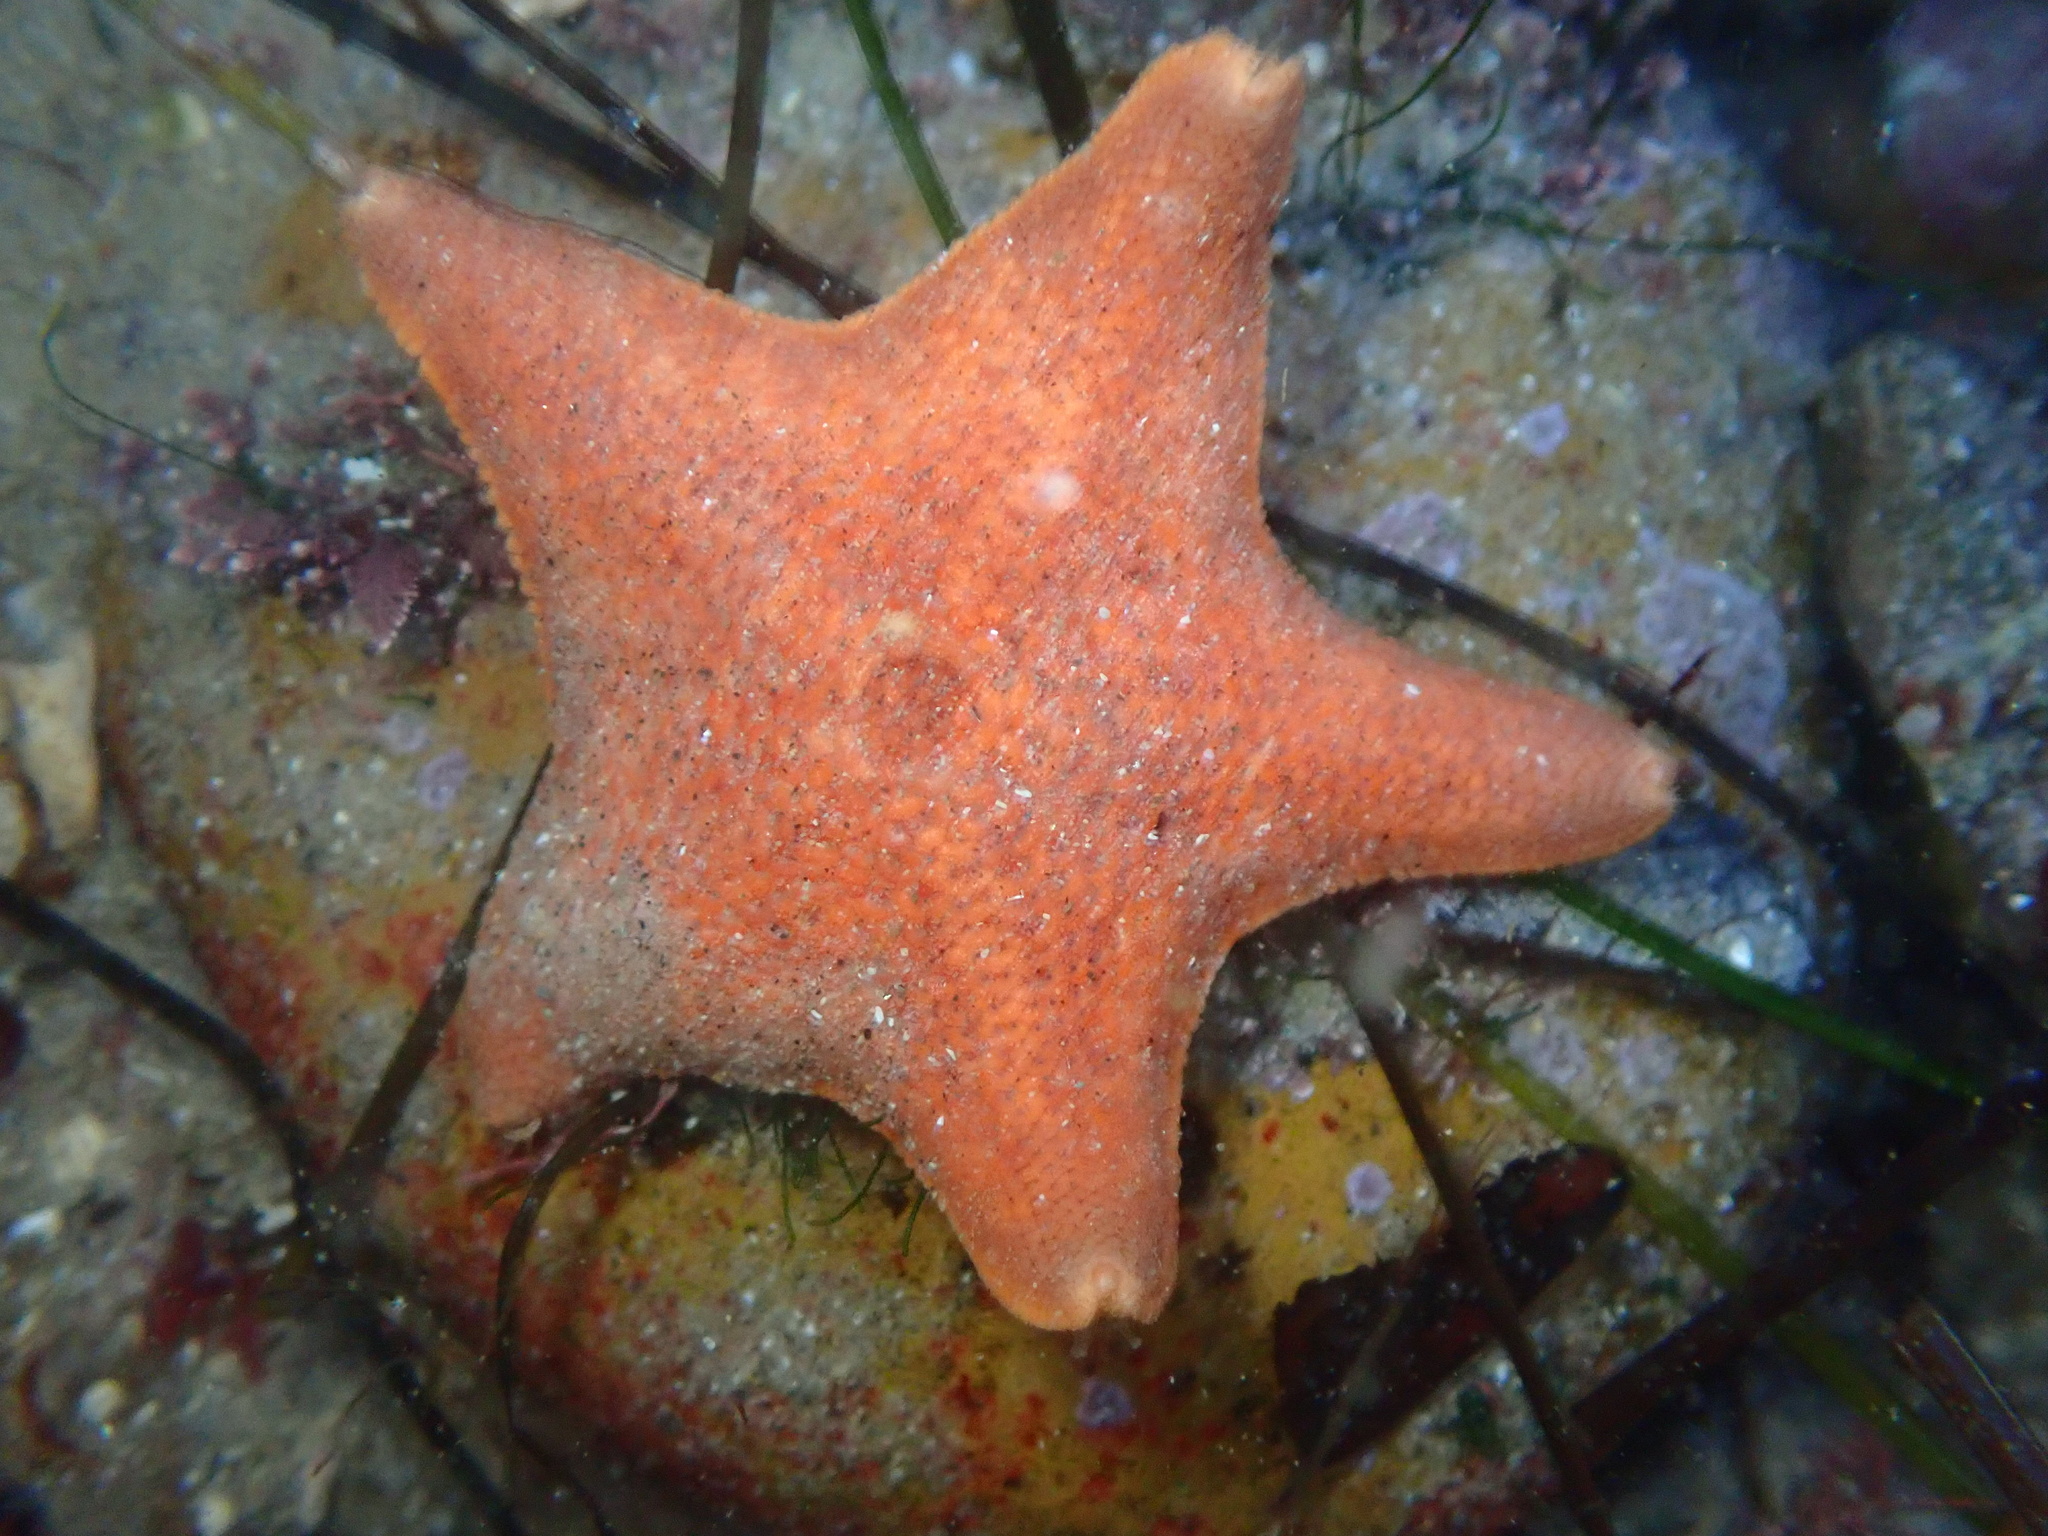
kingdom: Animalia
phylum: Echinodermata
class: Asteroidea
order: Valvatida
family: Asterinidae
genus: Patiria
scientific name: Patiria miniata
